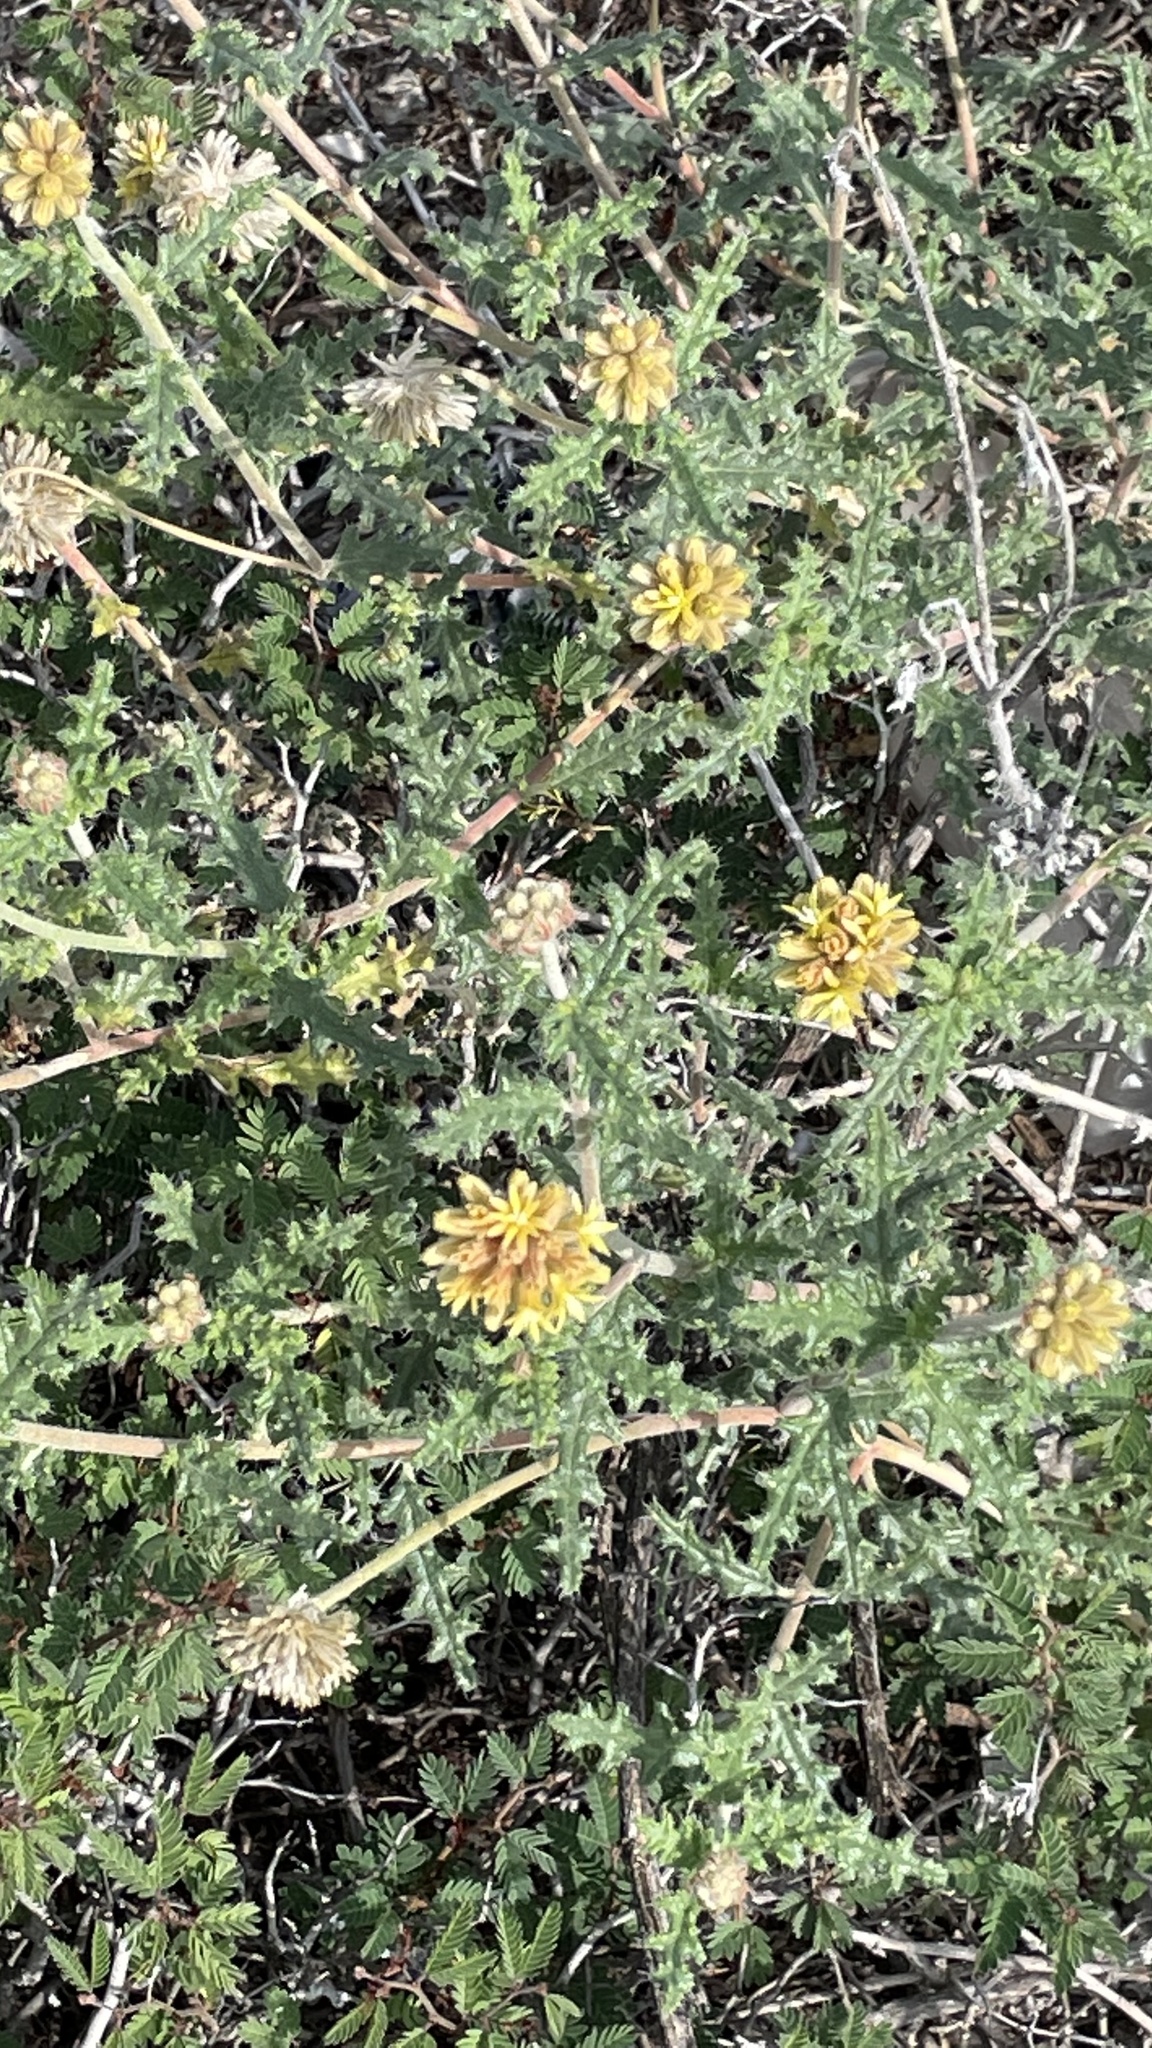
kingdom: Plantae
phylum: Tracheophyta
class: Magnoliopsida
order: Cornales
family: Loasaceae
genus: Cevallia
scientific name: Cevallia sinuata
